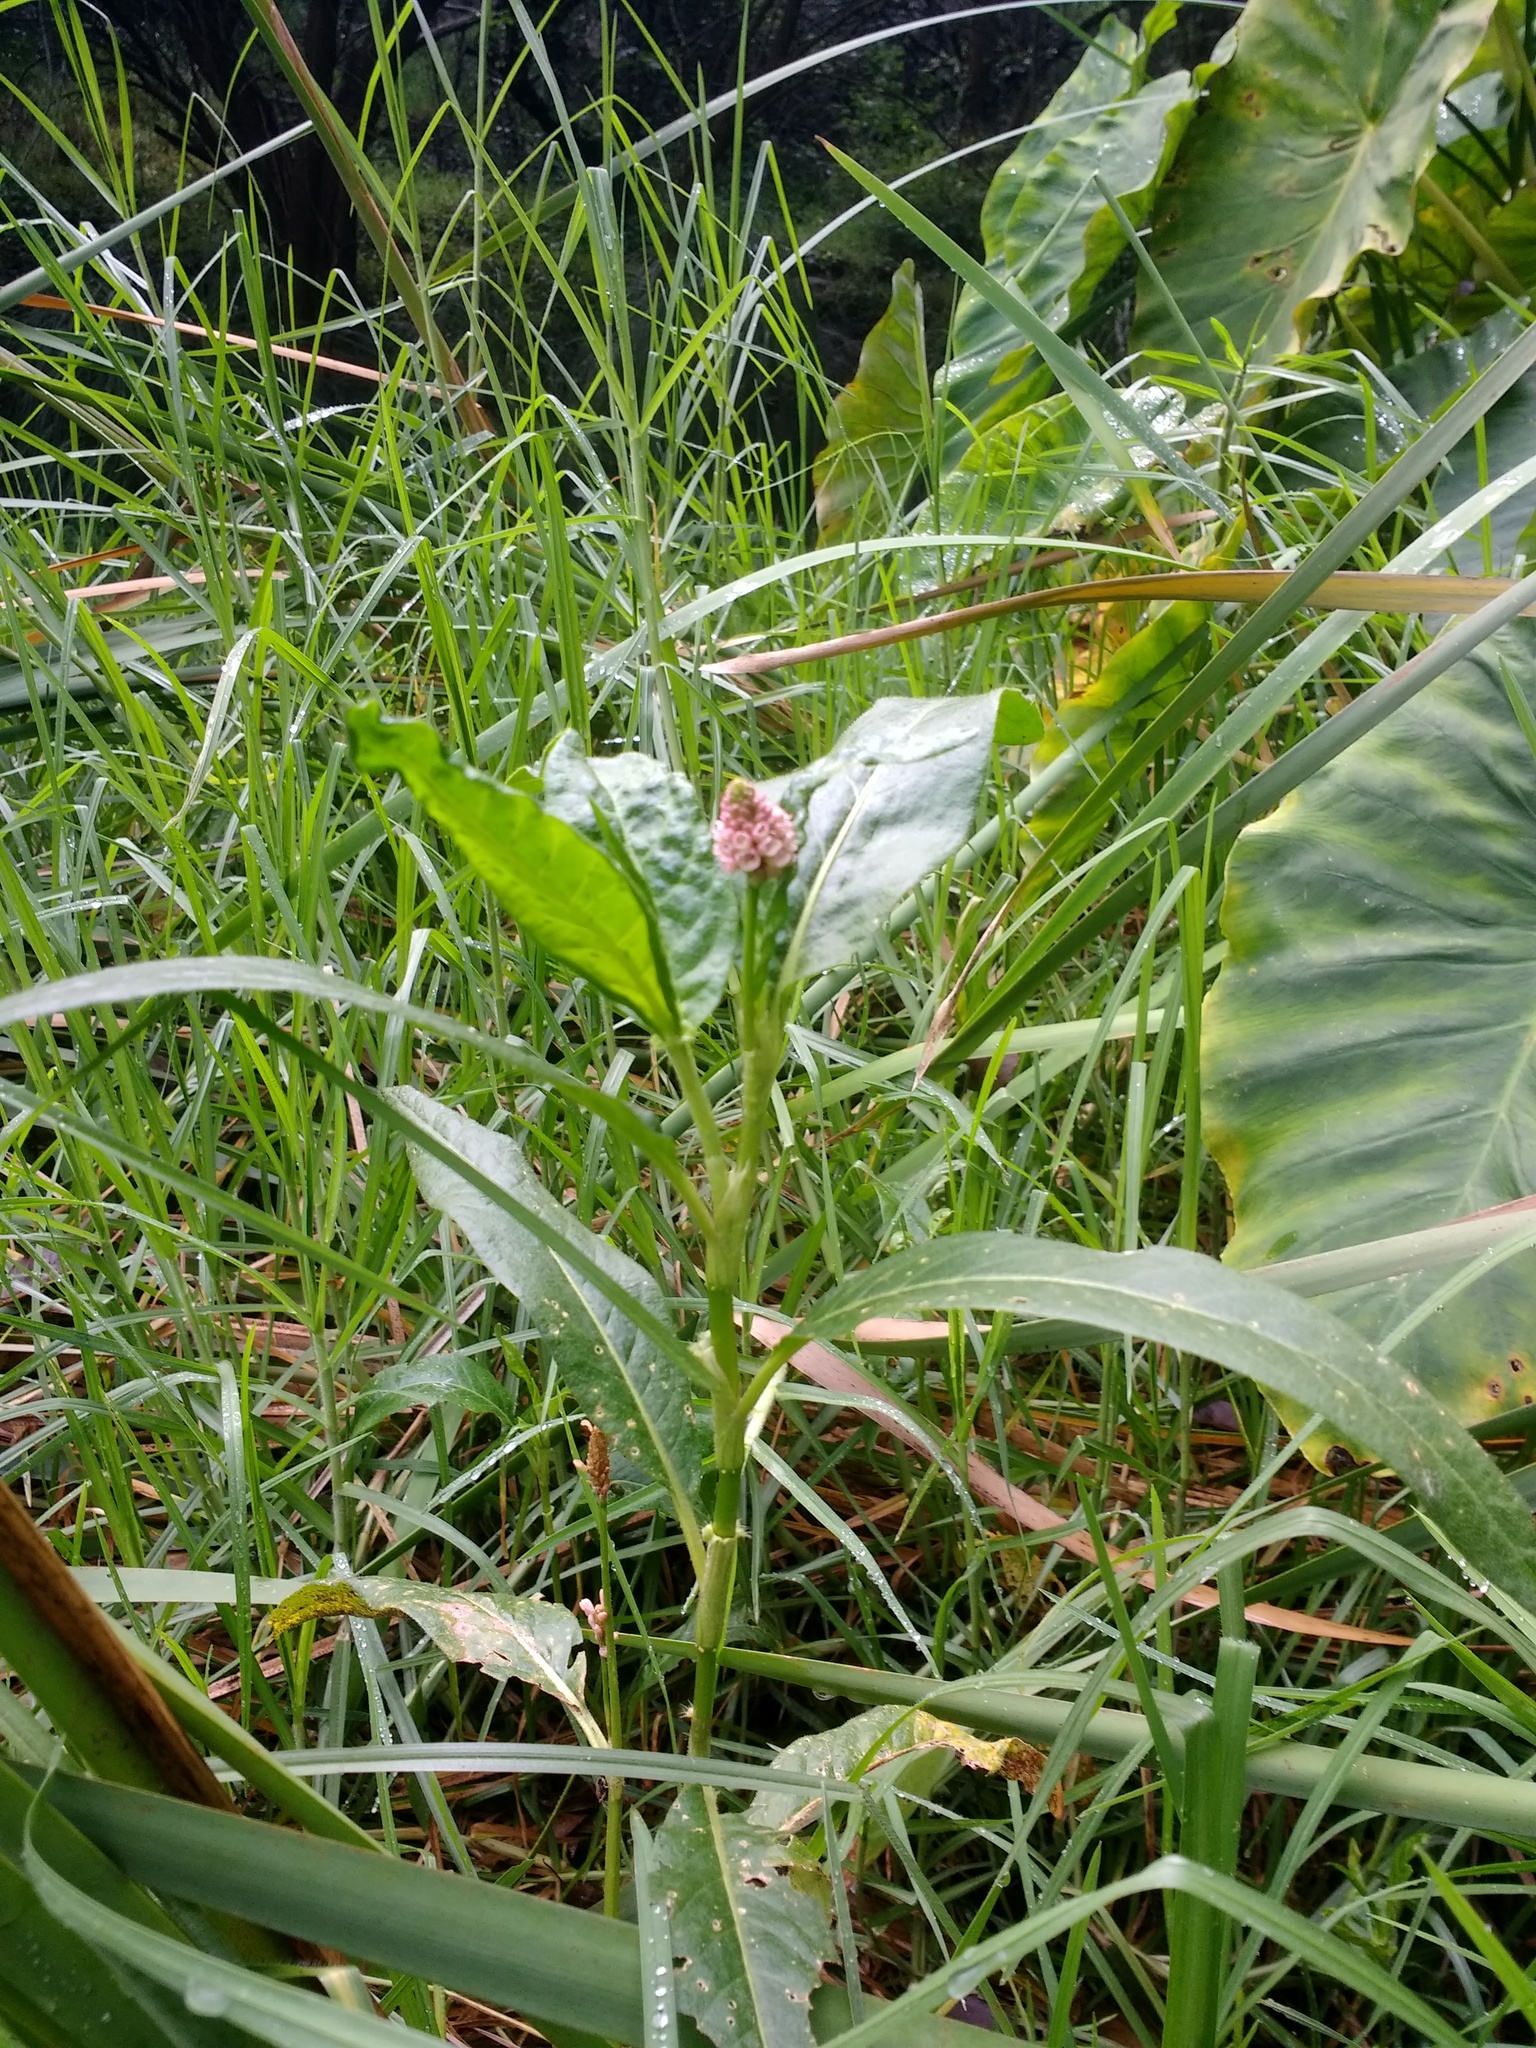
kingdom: Plantae
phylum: Tracheophyta
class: Magnoliopsida
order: Caryophyllales
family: Polygonaceae
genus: Persicaria
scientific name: Persicaria amphibia
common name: Amphibious bistort
